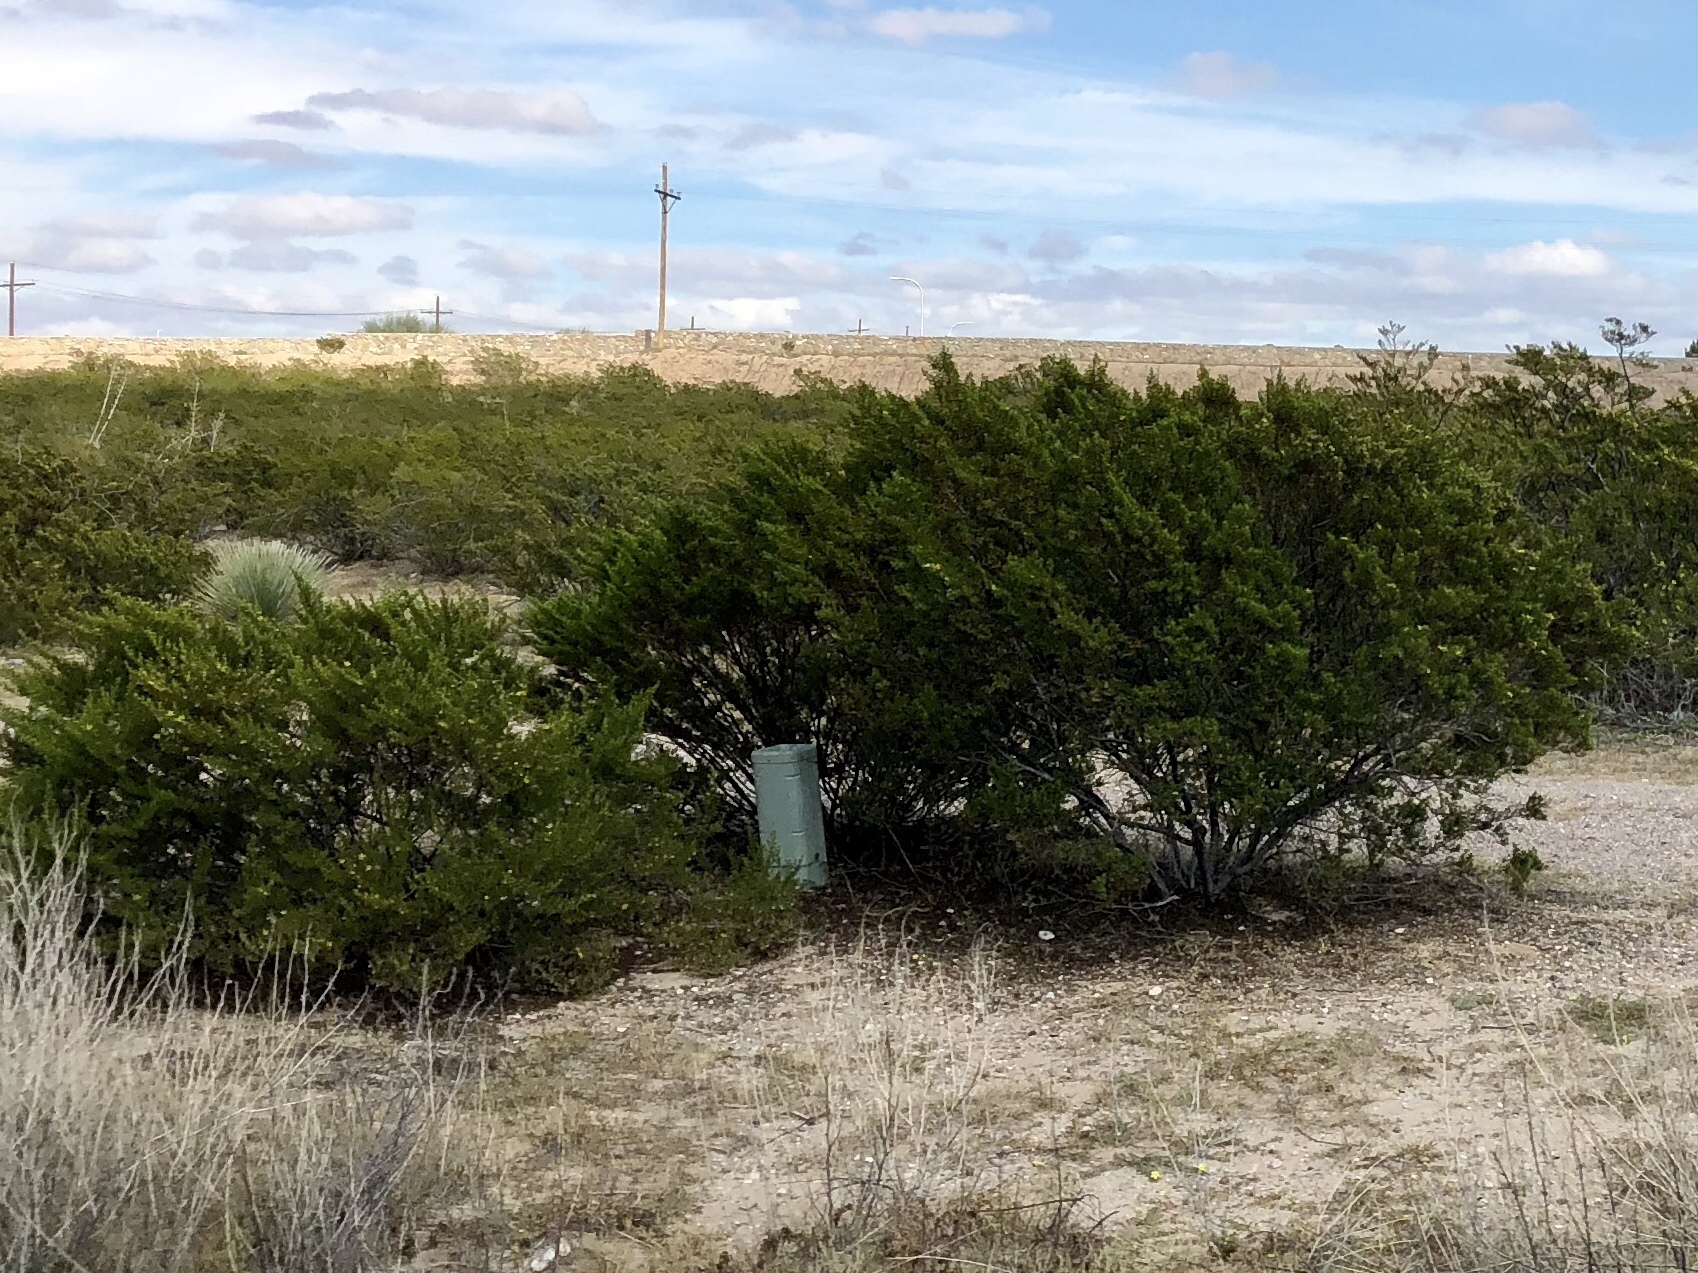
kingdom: Plantae
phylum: Tracheophyta
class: Magnoliopsida
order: Zygophyllales
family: Zygophyllaceae
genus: Larrea
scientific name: Larrea tridentata
